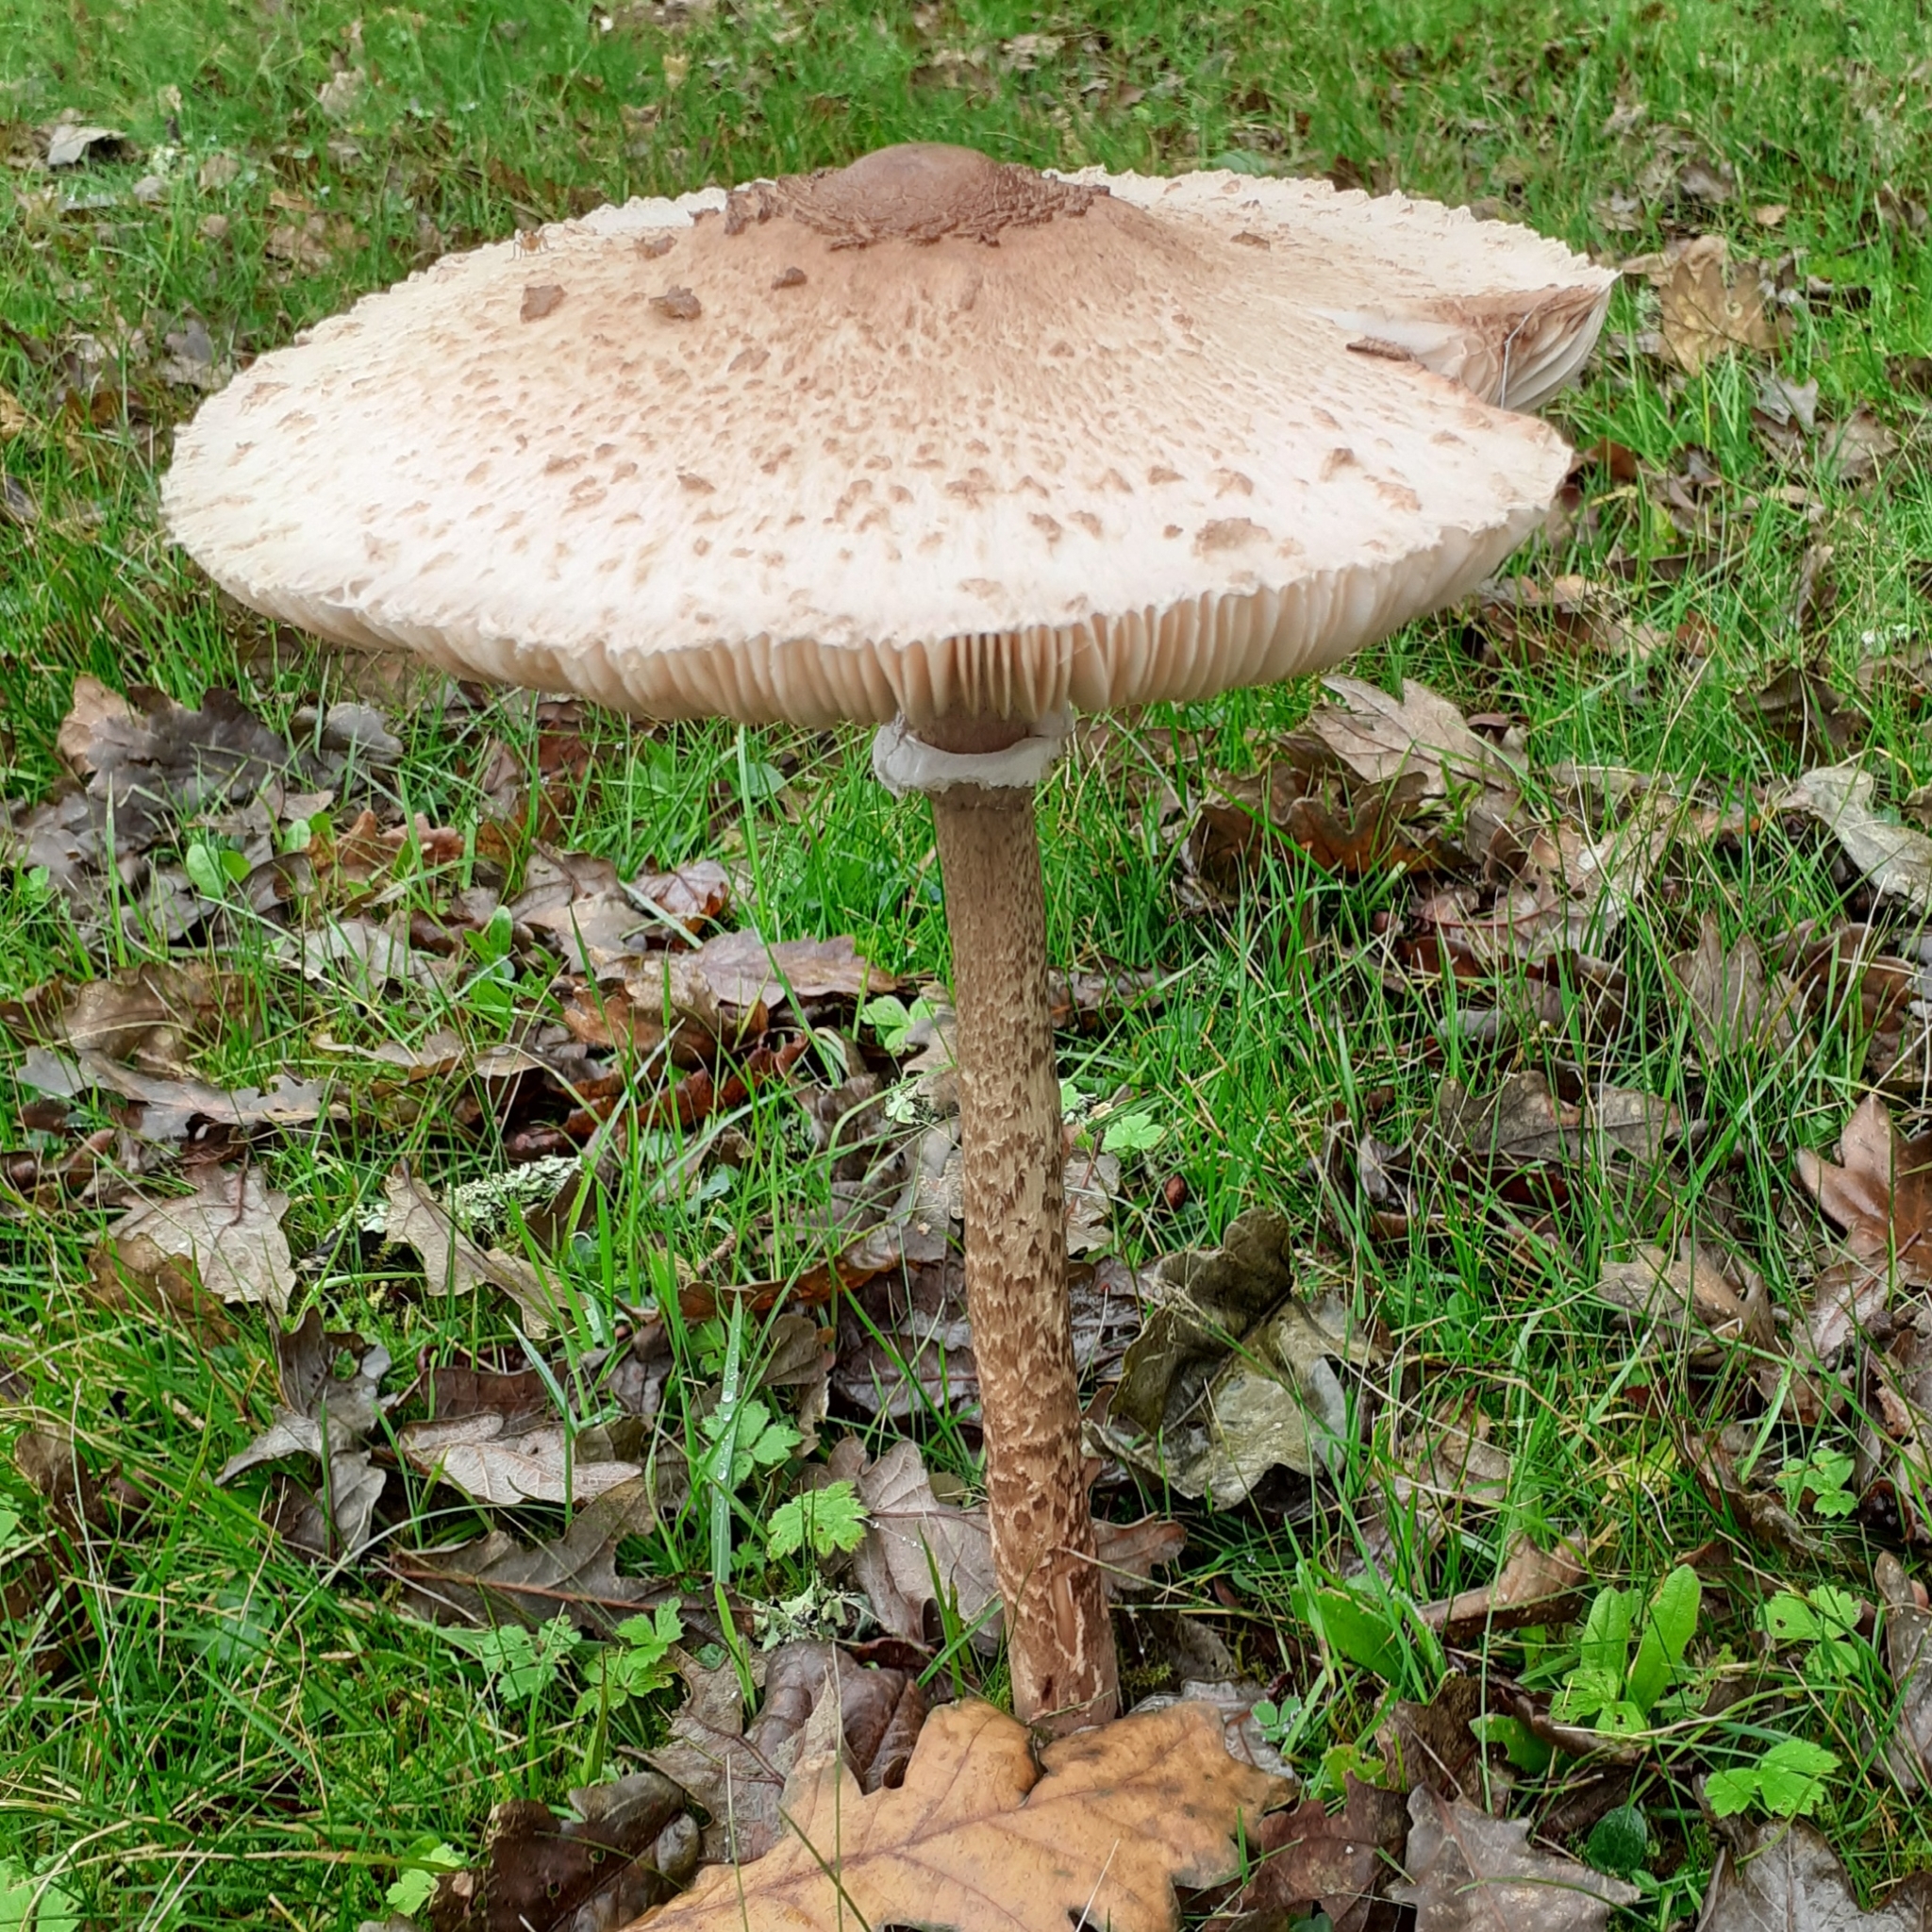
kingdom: Fungi
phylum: Basidiomycota
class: Agaricomycetes
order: Agaricales
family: Agaricaceae
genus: Macrolepiota
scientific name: Macrolepiota procera
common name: Parasol
